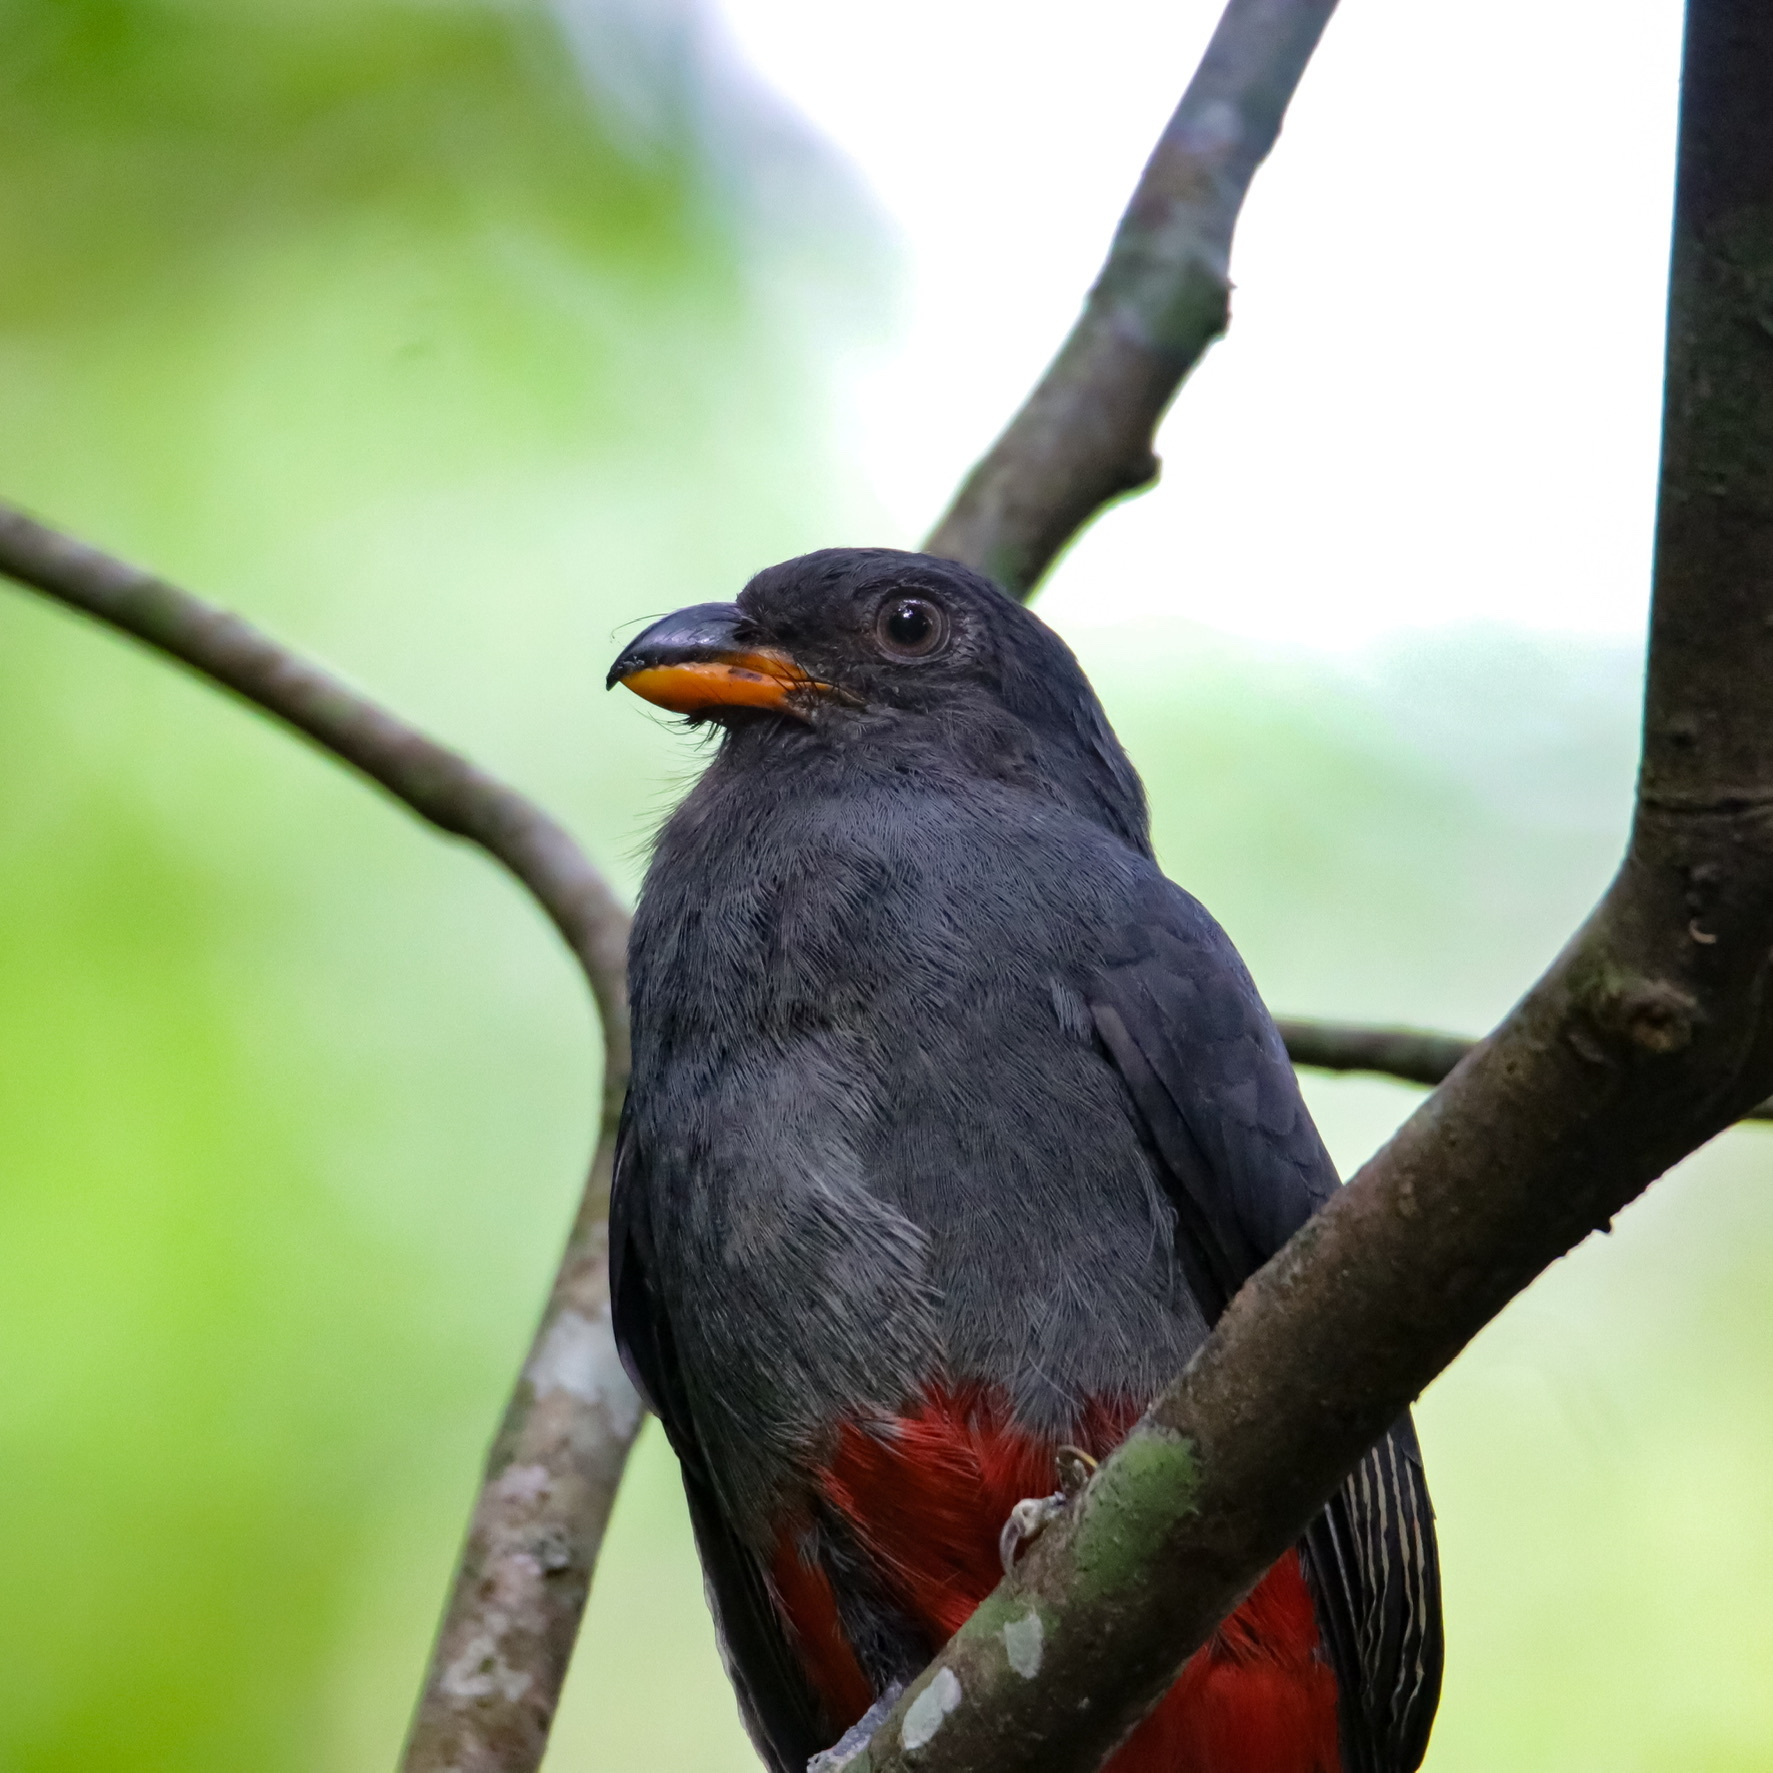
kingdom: Animalia
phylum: Chordata
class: Aves
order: Trogoniformes
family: Trogonidae
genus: Trogon
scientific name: Trogon massena
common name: Slaty-tailed trogon
